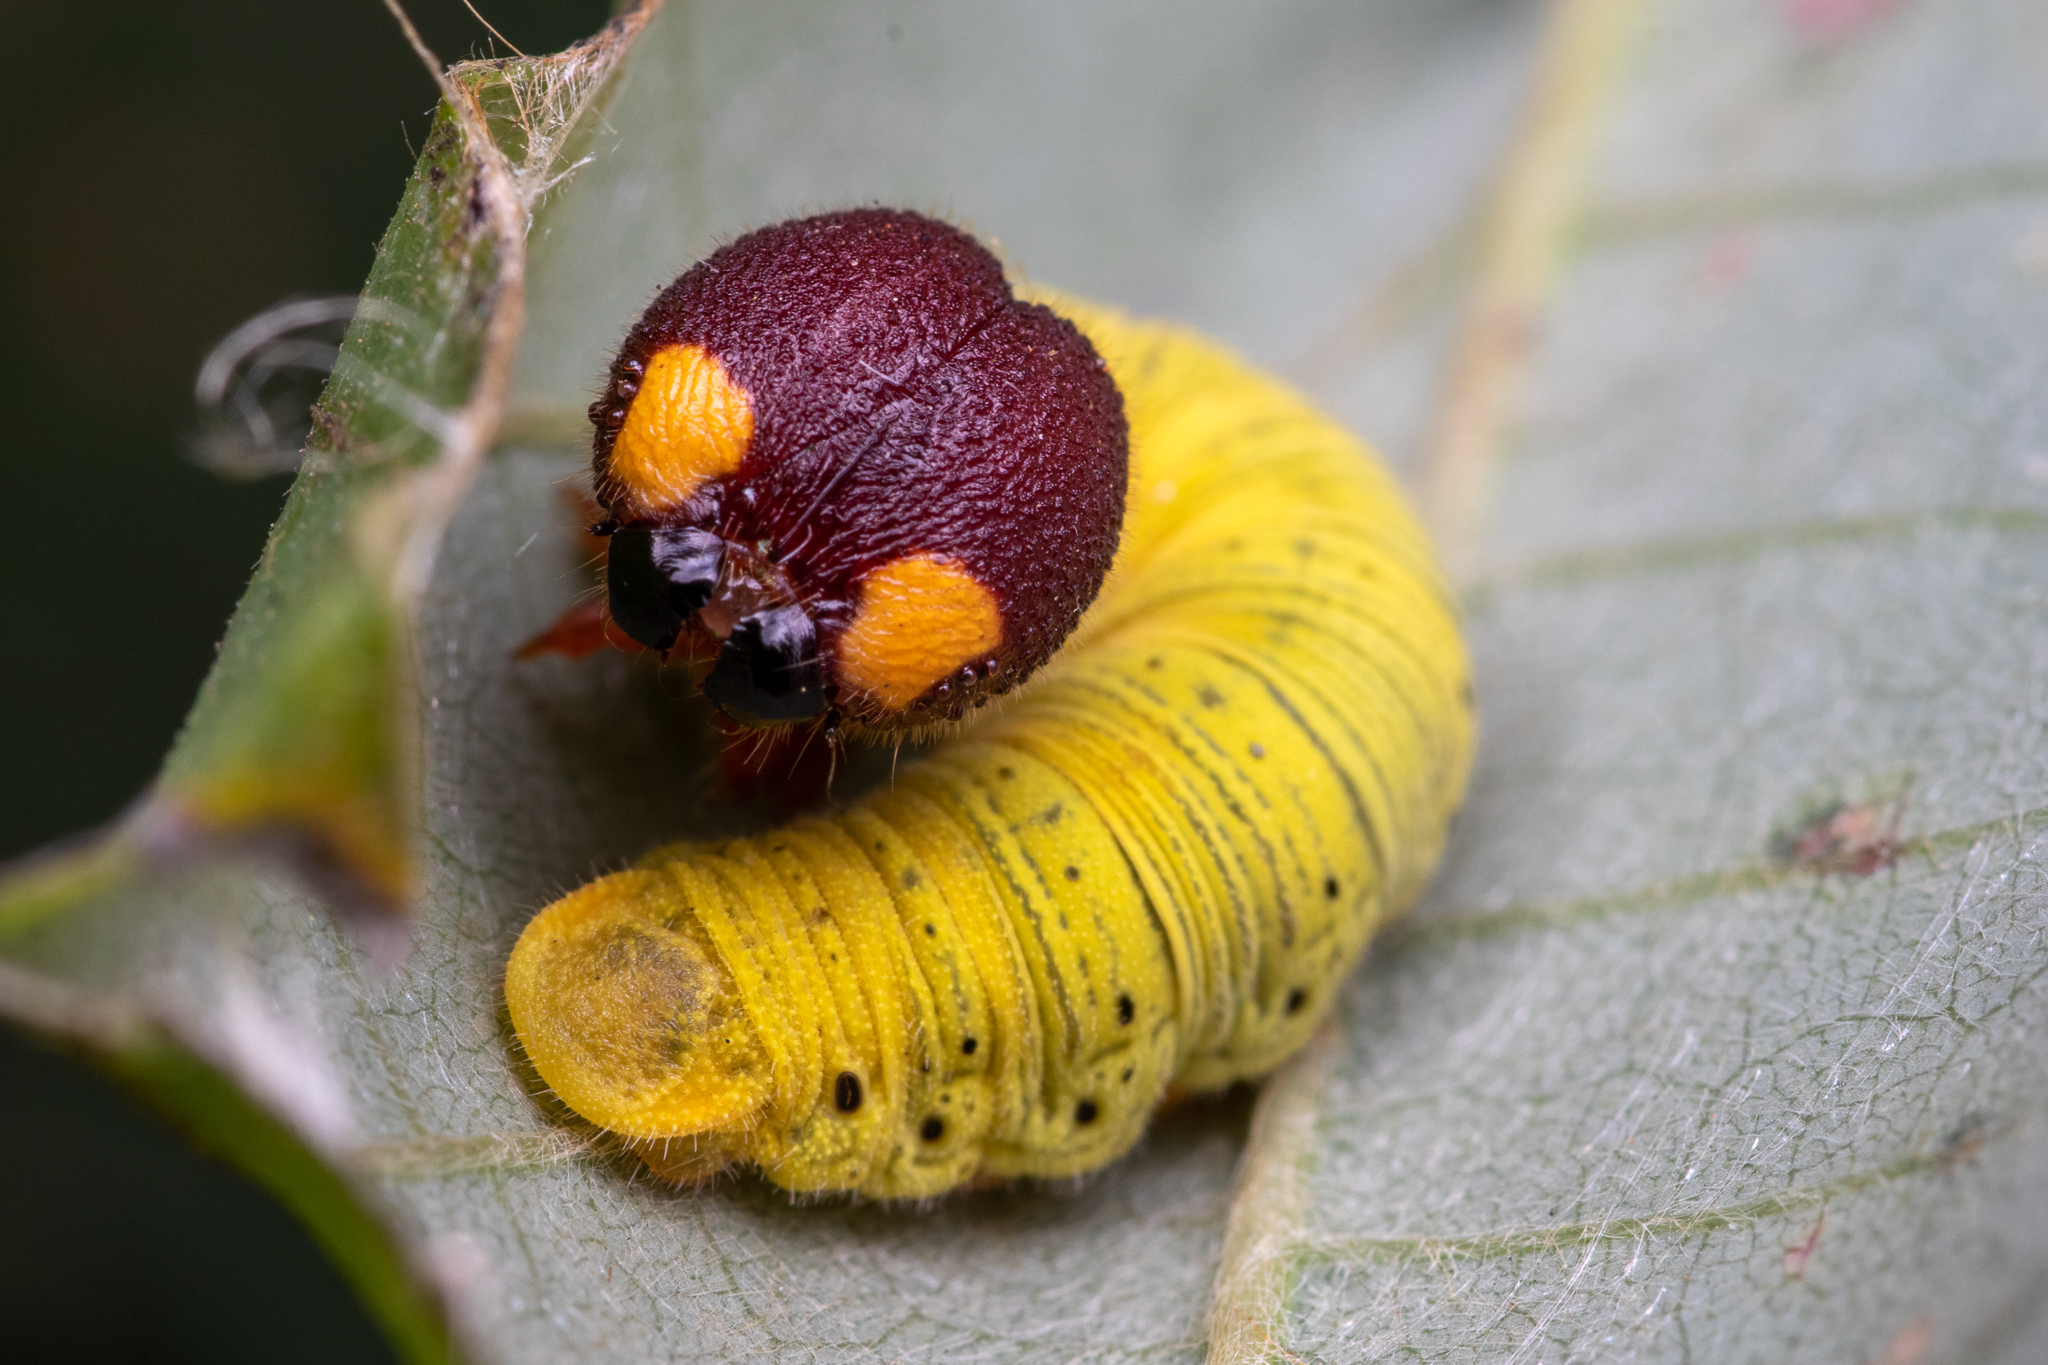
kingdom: Animalia
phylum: Arthropoda
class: Insecta
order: Lepidoptera
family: Hesperiidae
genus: Epargyreus
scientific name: Epargyreus clarus
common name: Silver-spotted skipper
